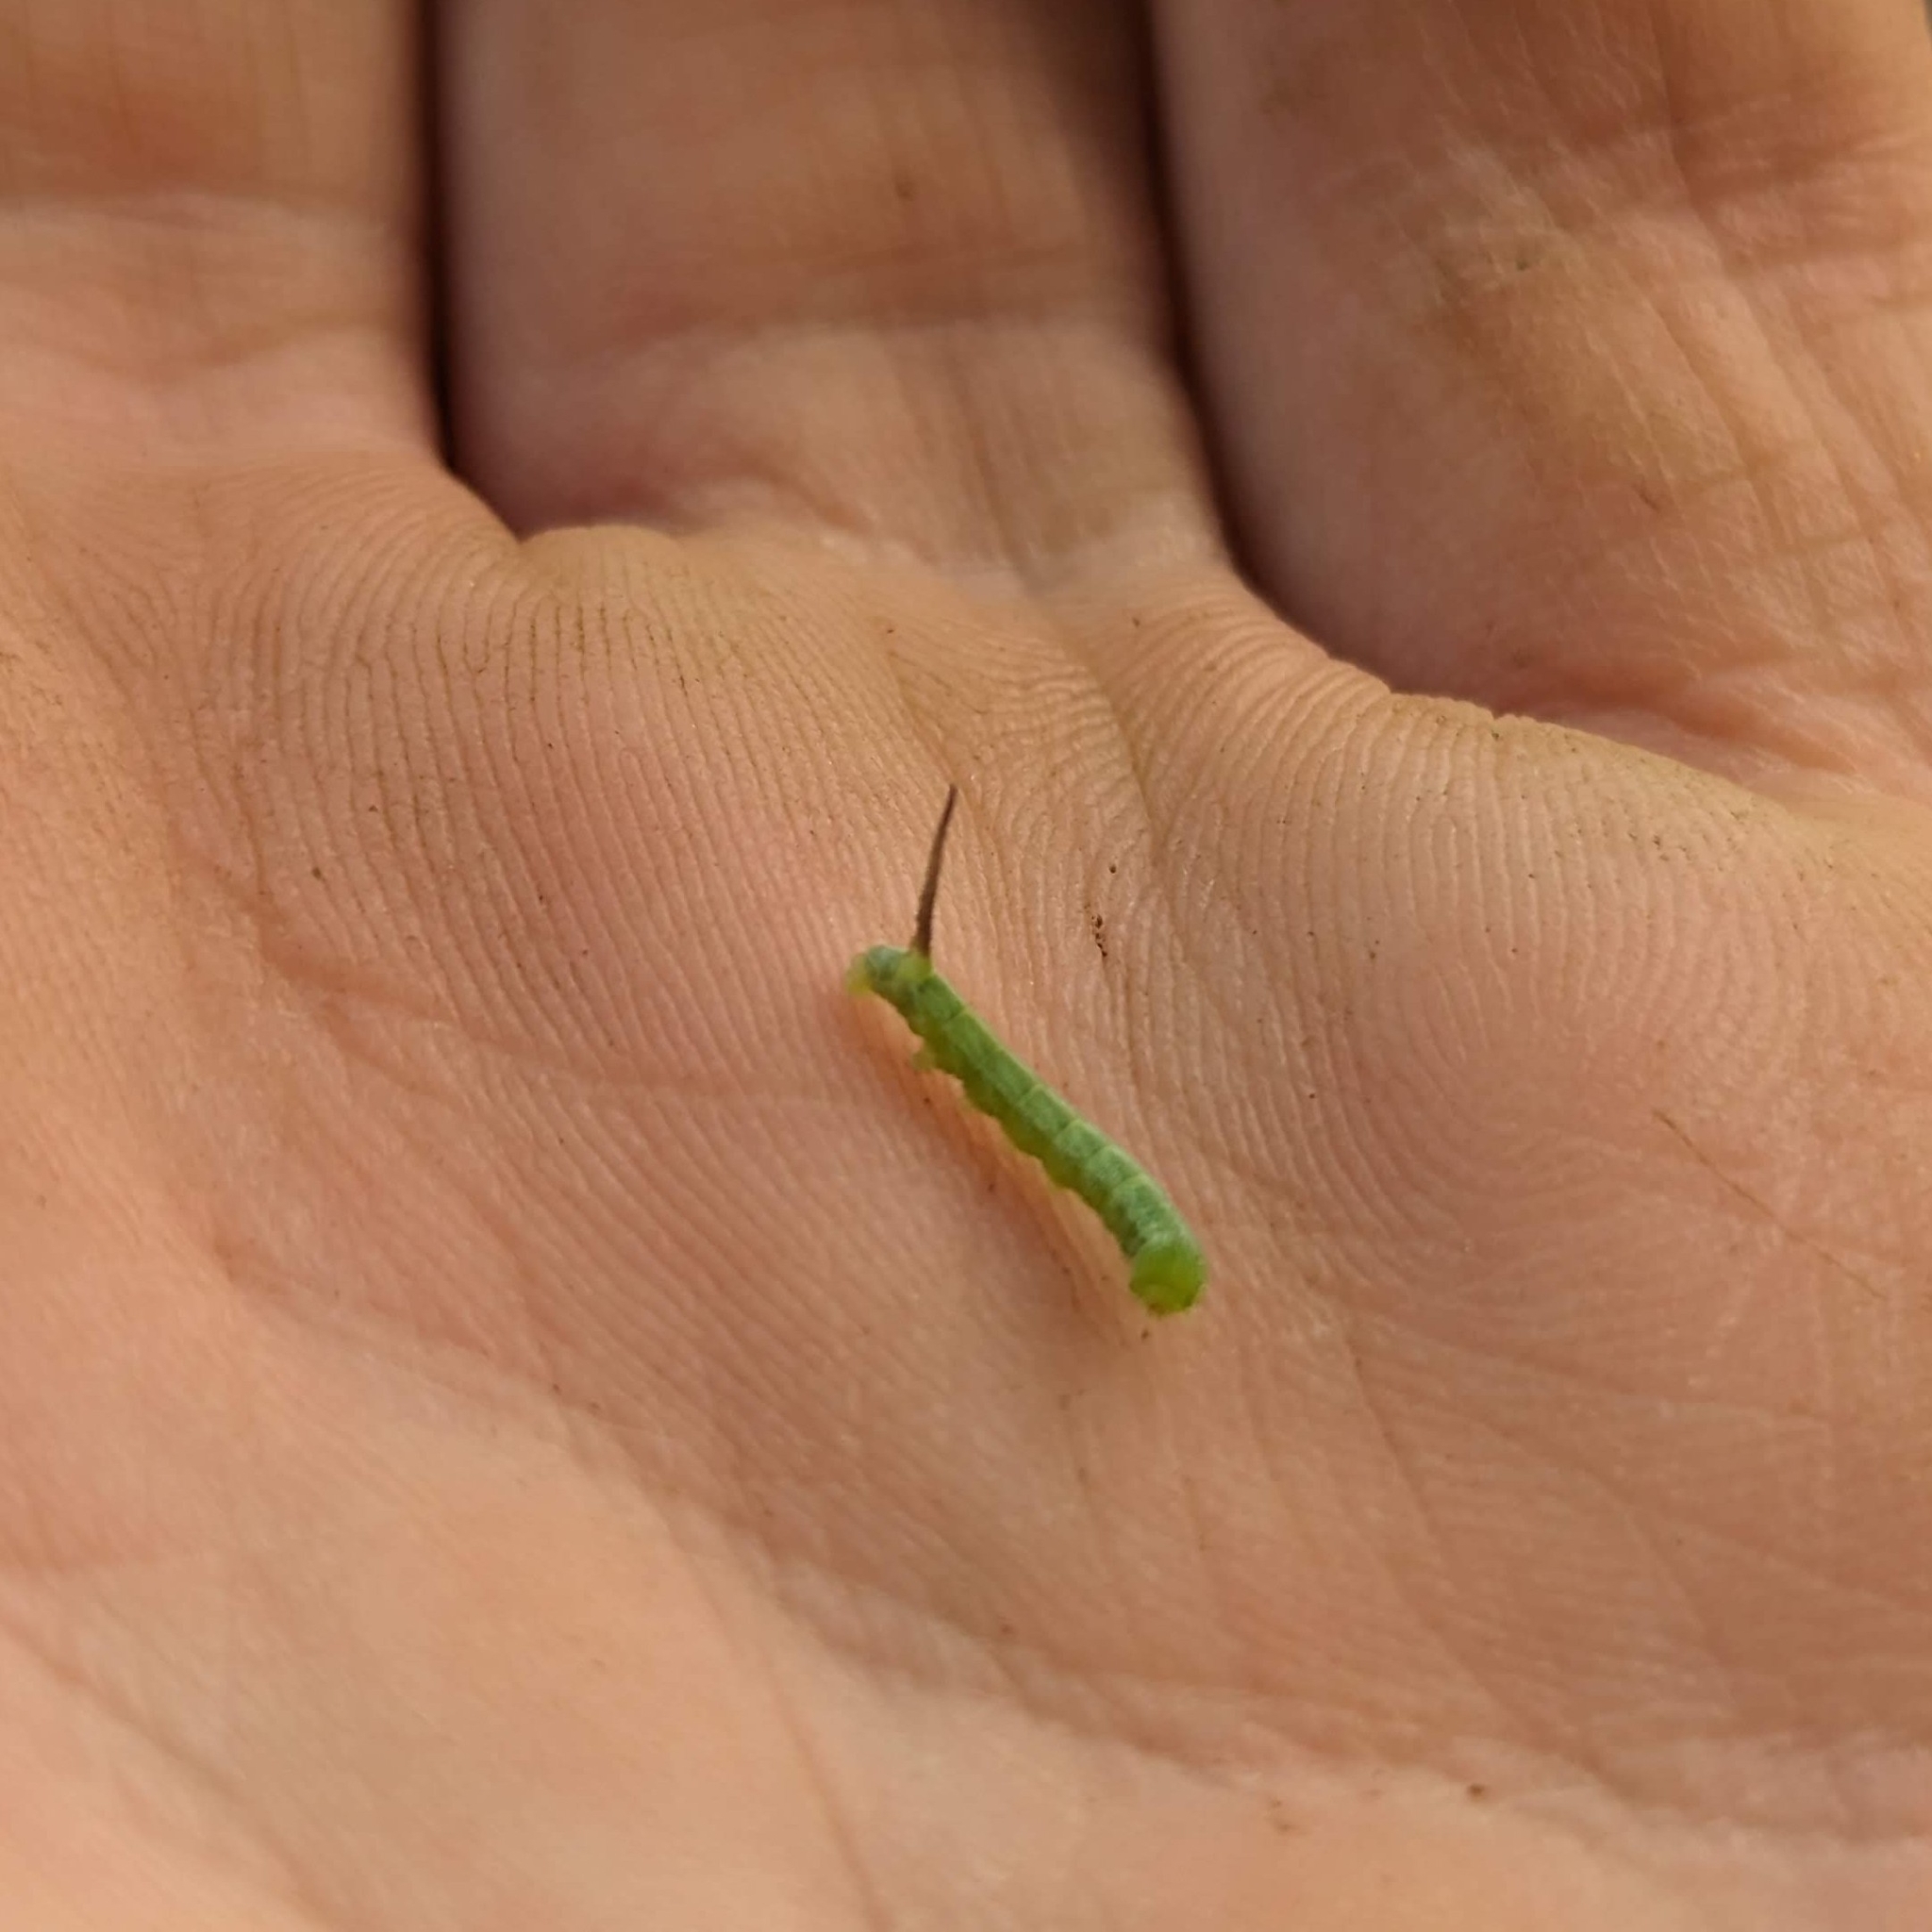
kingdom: Animalia
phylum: Arthropoda
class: Insecta
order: Lepidoptera
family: Sphingidae
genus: Manduca
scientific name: Manduca sexta
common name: Carolina sphinx
